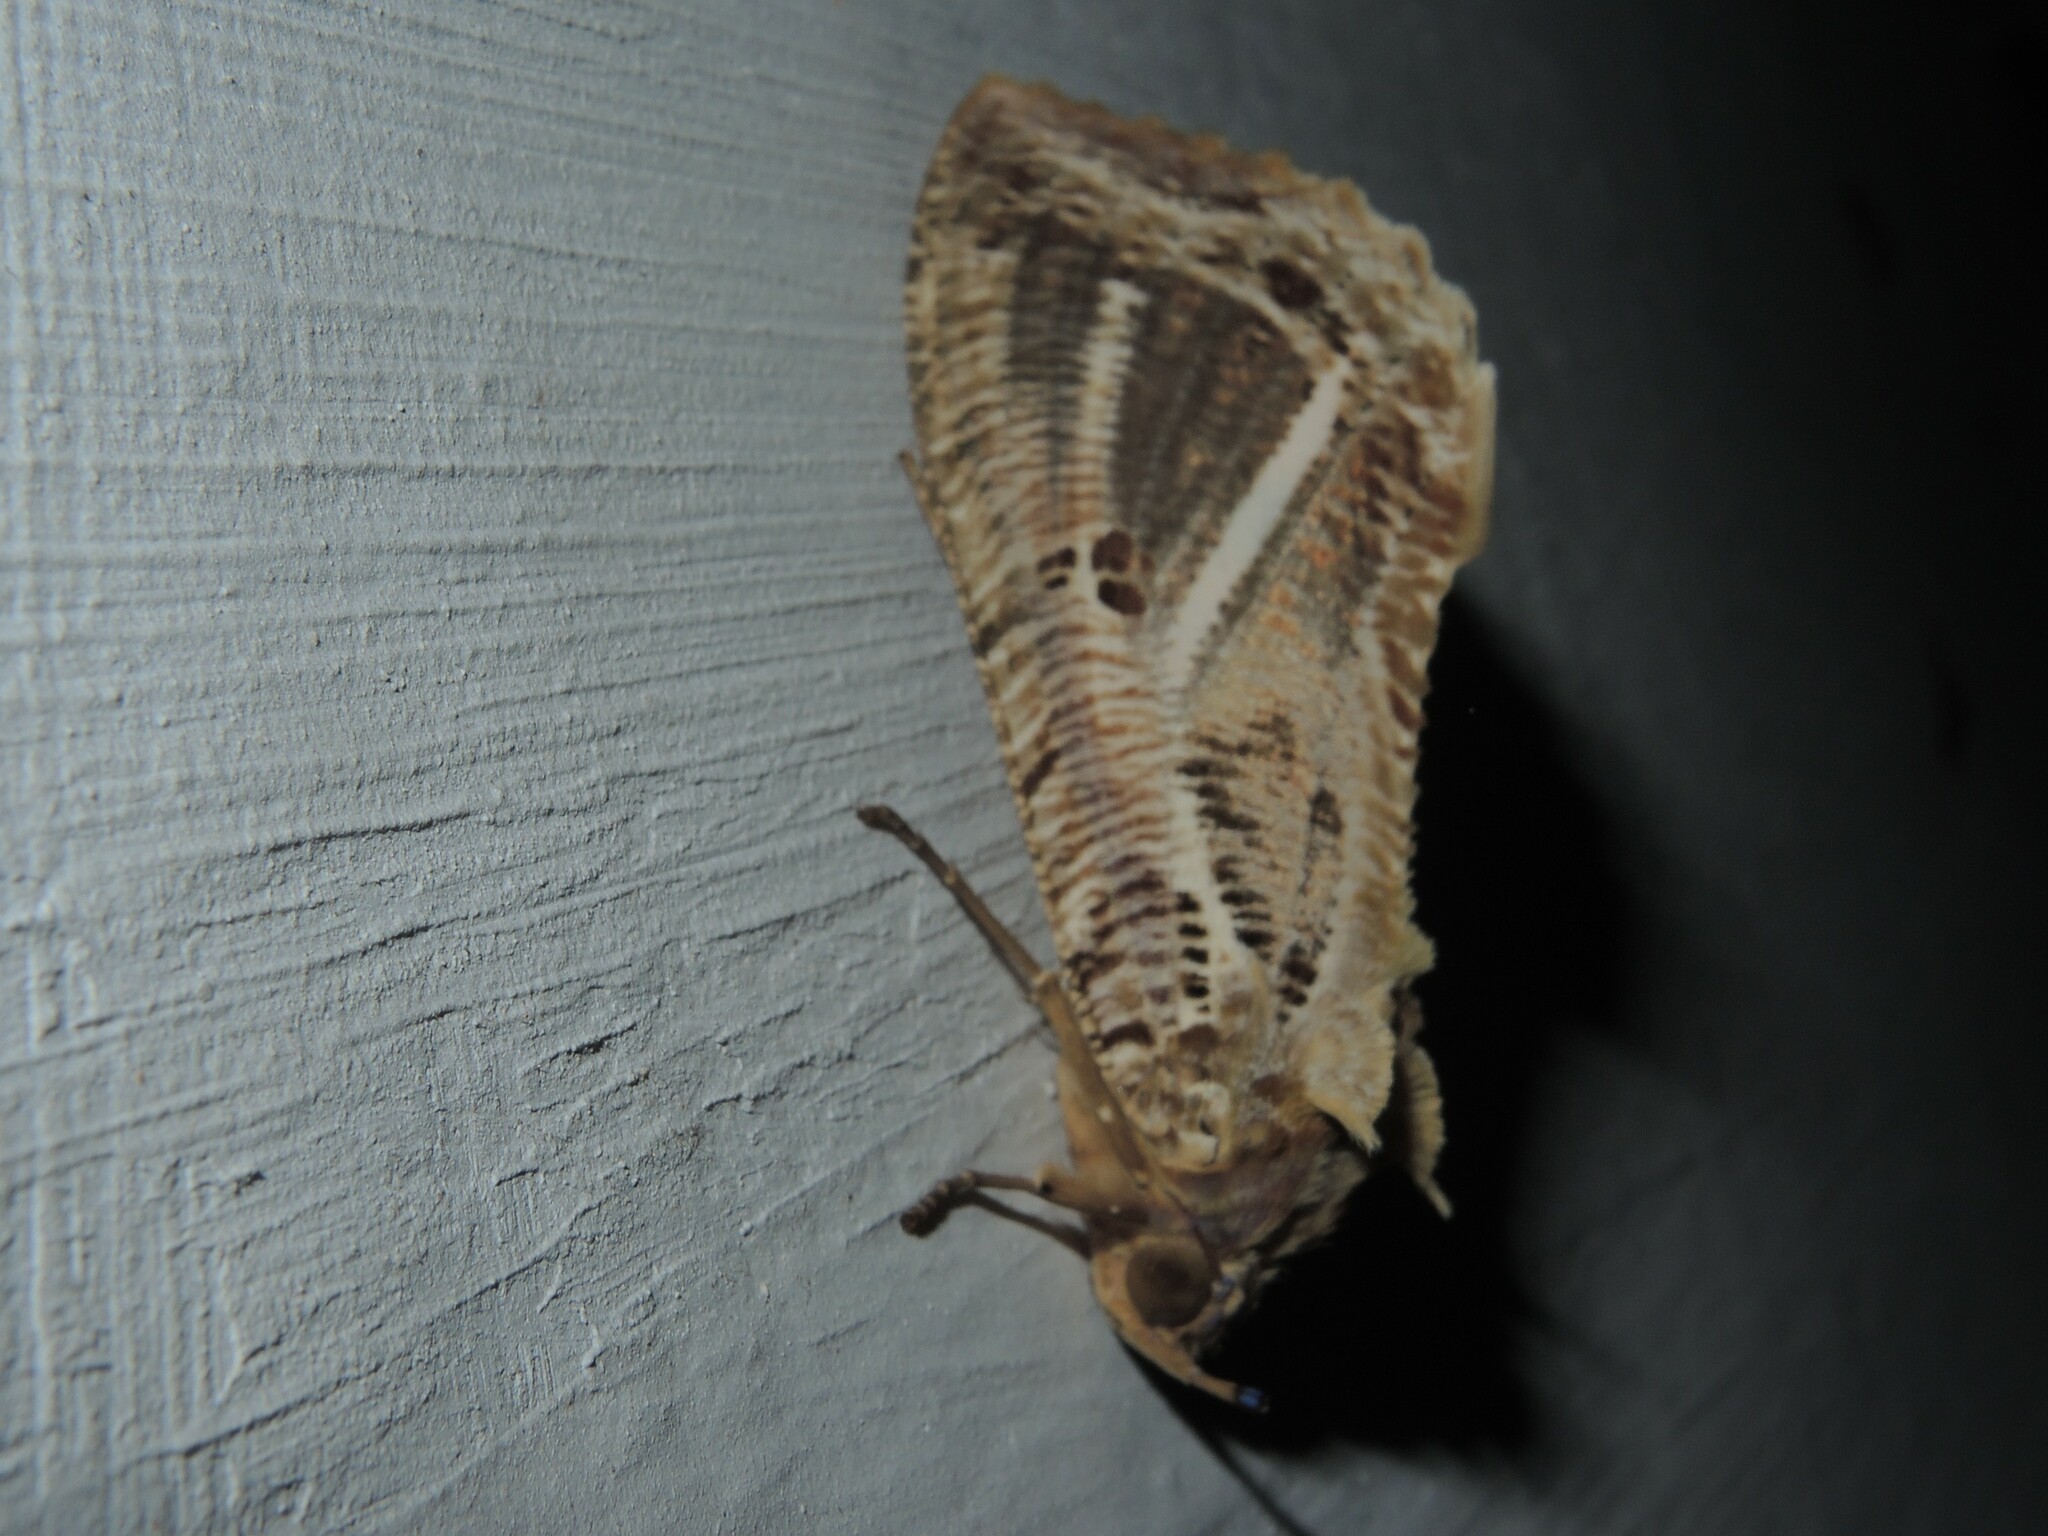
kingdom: Animalia
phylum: Arthropoda
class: Insecta
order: Lepidoptera
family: Erebidae
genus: Eudocima
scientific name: Eudocima materna
